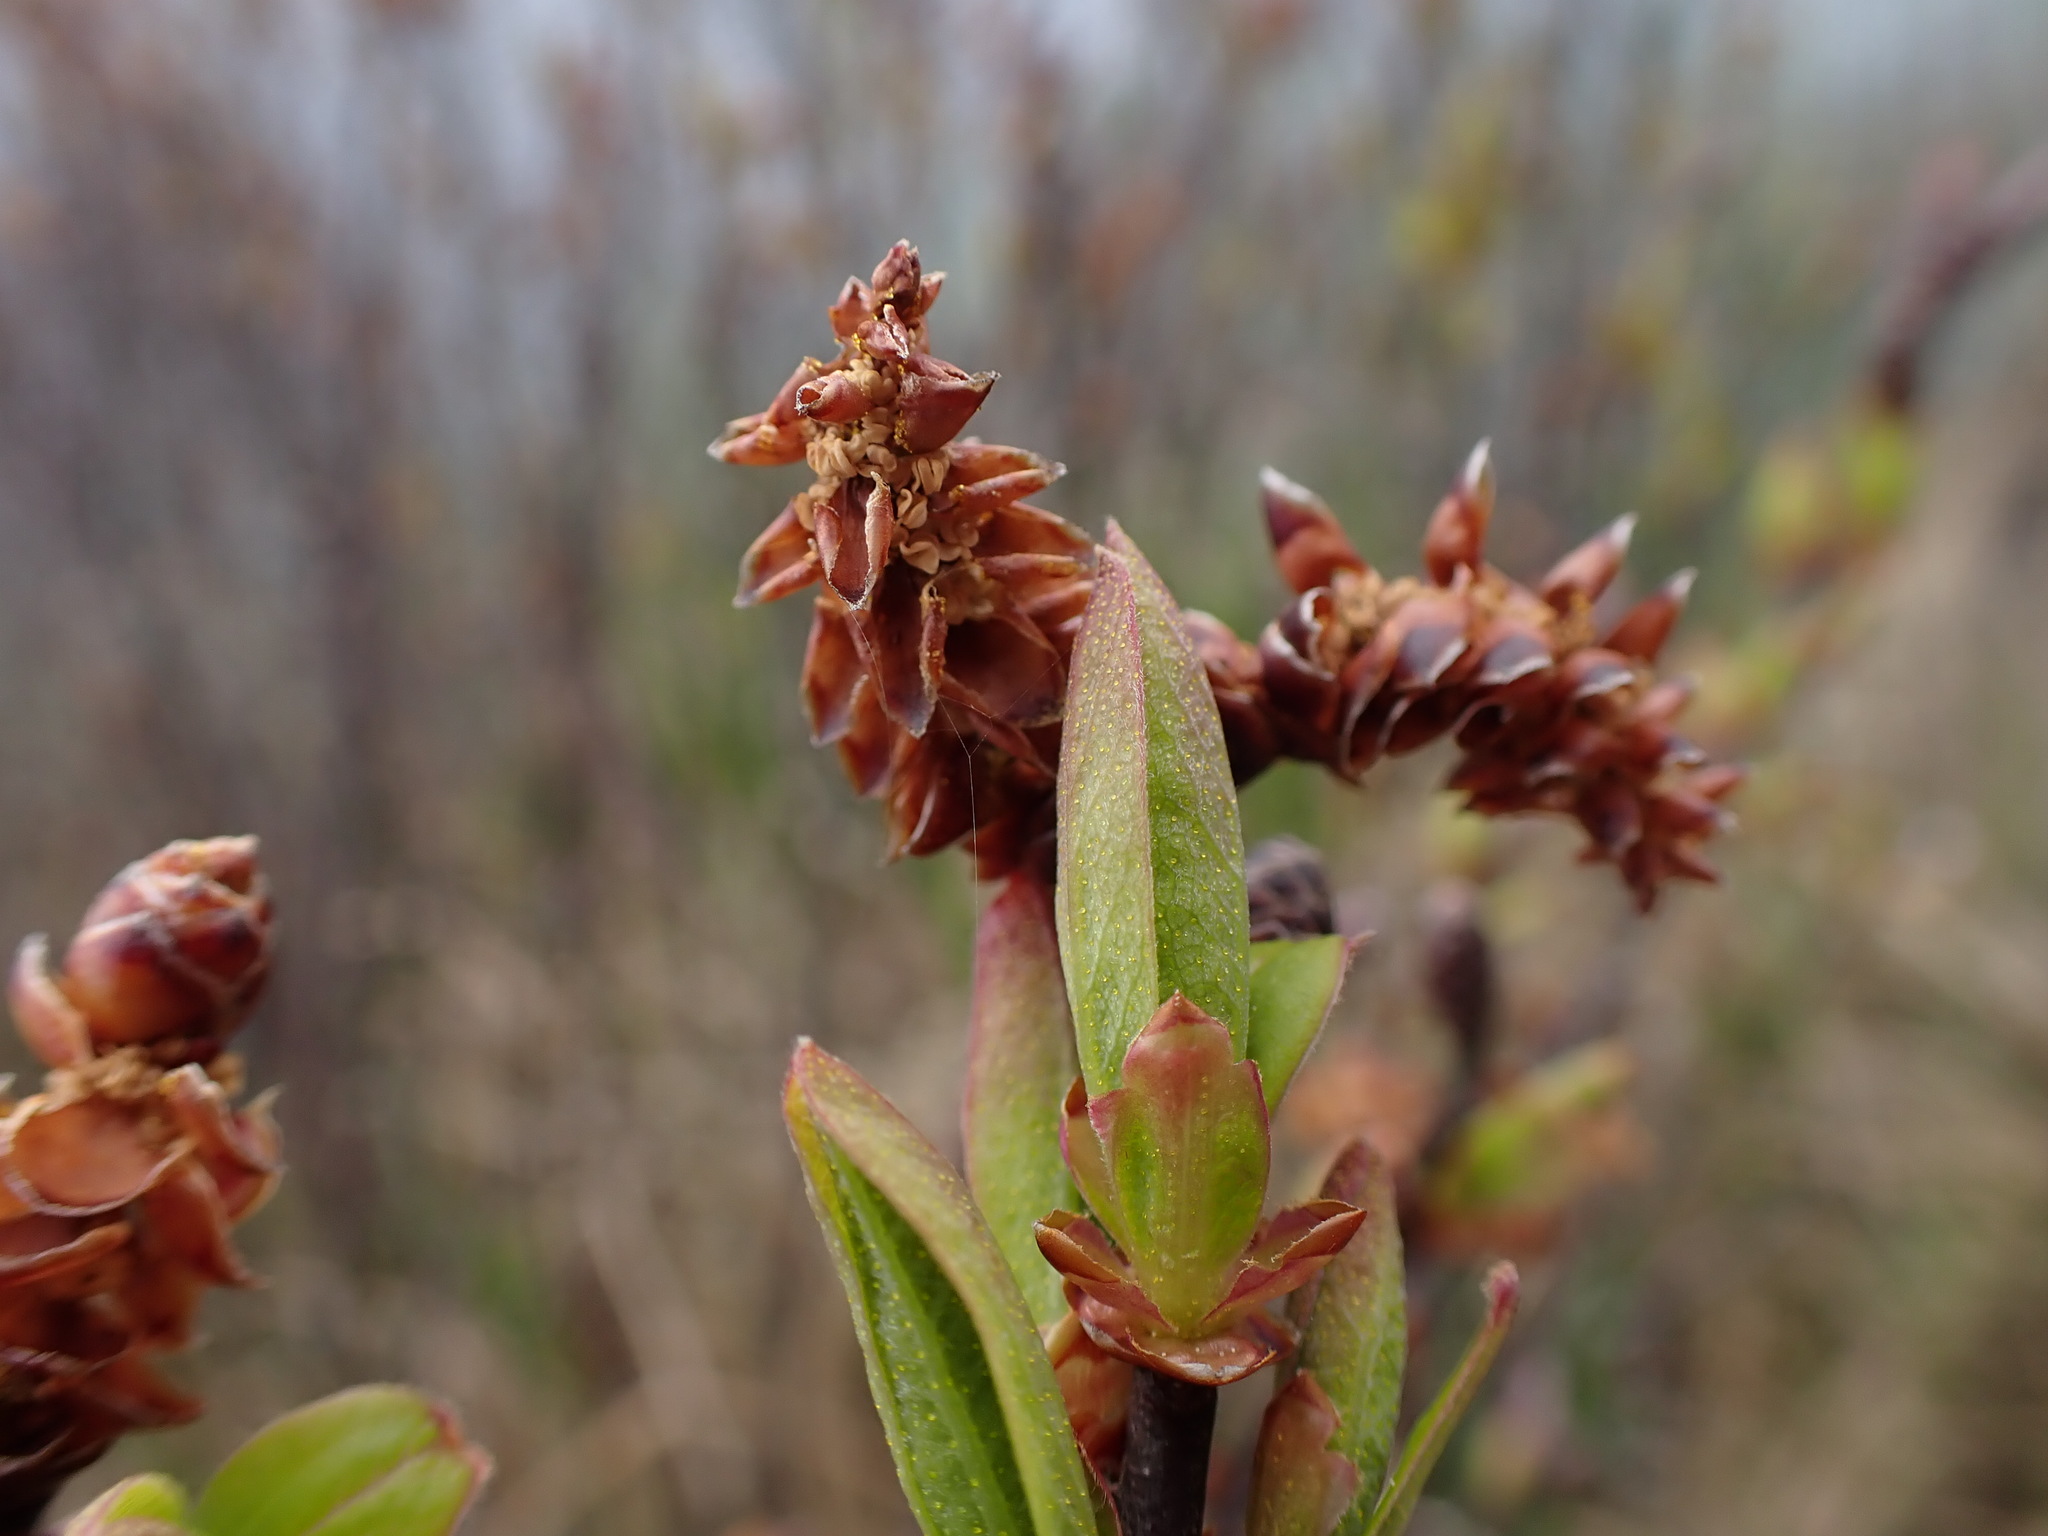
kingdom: Plantae
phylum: Tracheophyta
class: Magnoliopsida
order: Fagales
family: Myricaceae
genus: Myrica
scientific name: Myrica gale
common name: Sweet gale
